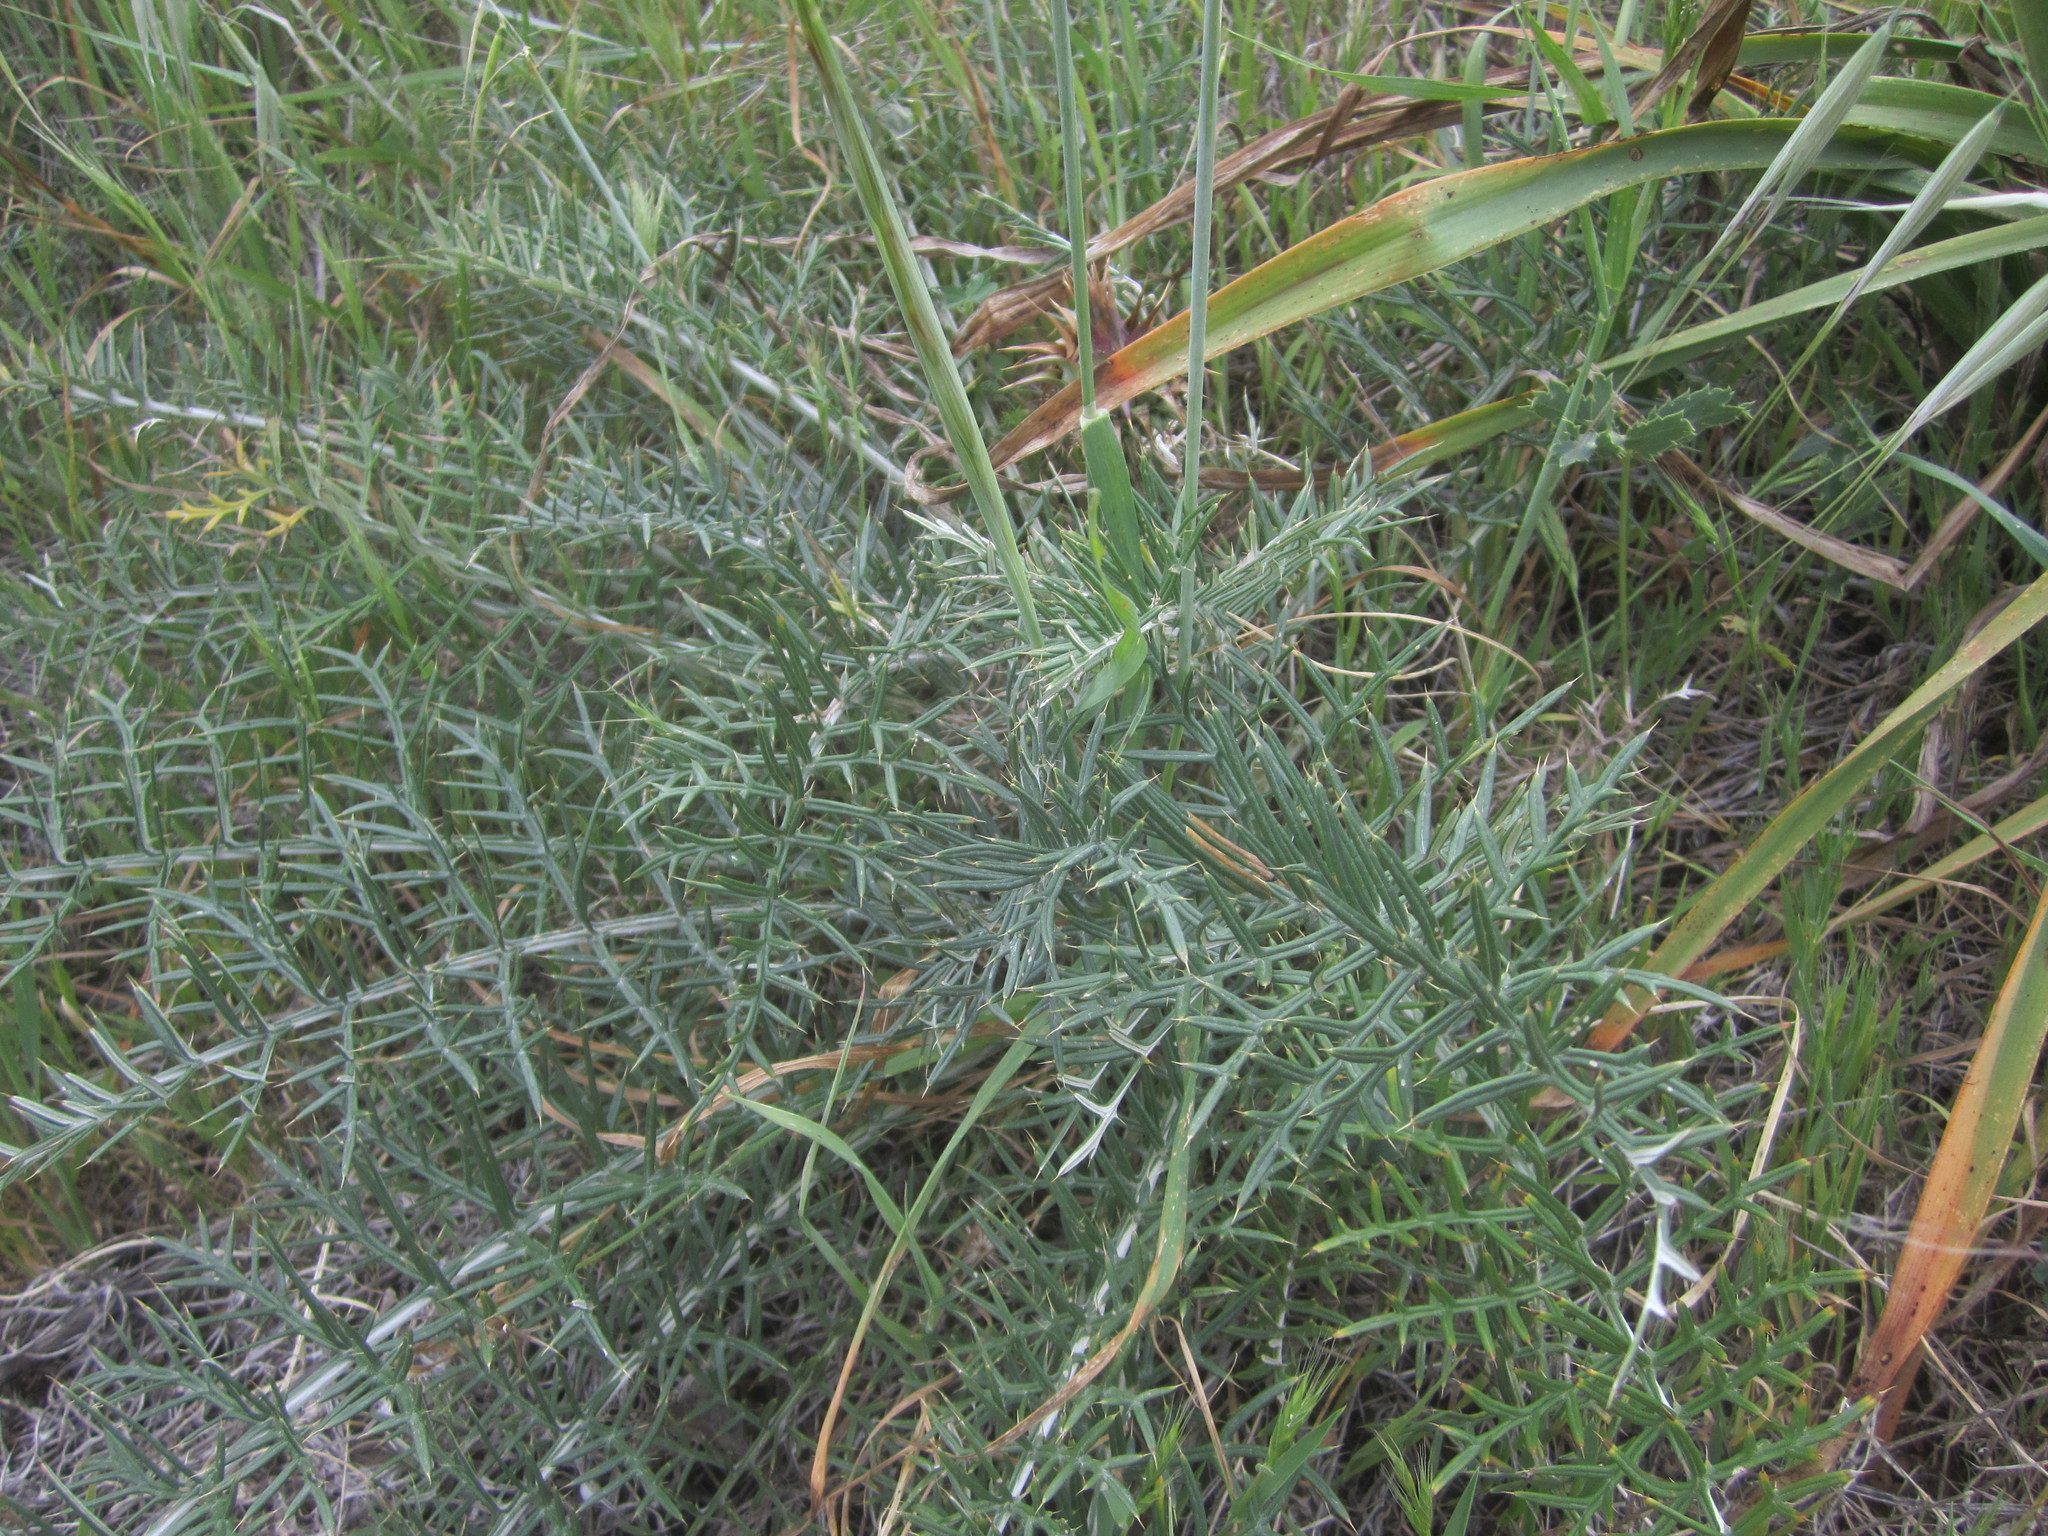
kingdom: Plantae
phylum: Tracheophyta
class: Magnoliopsida
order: Asterales
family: Asteraceae
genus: Cynara
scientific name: Cynara humilis
